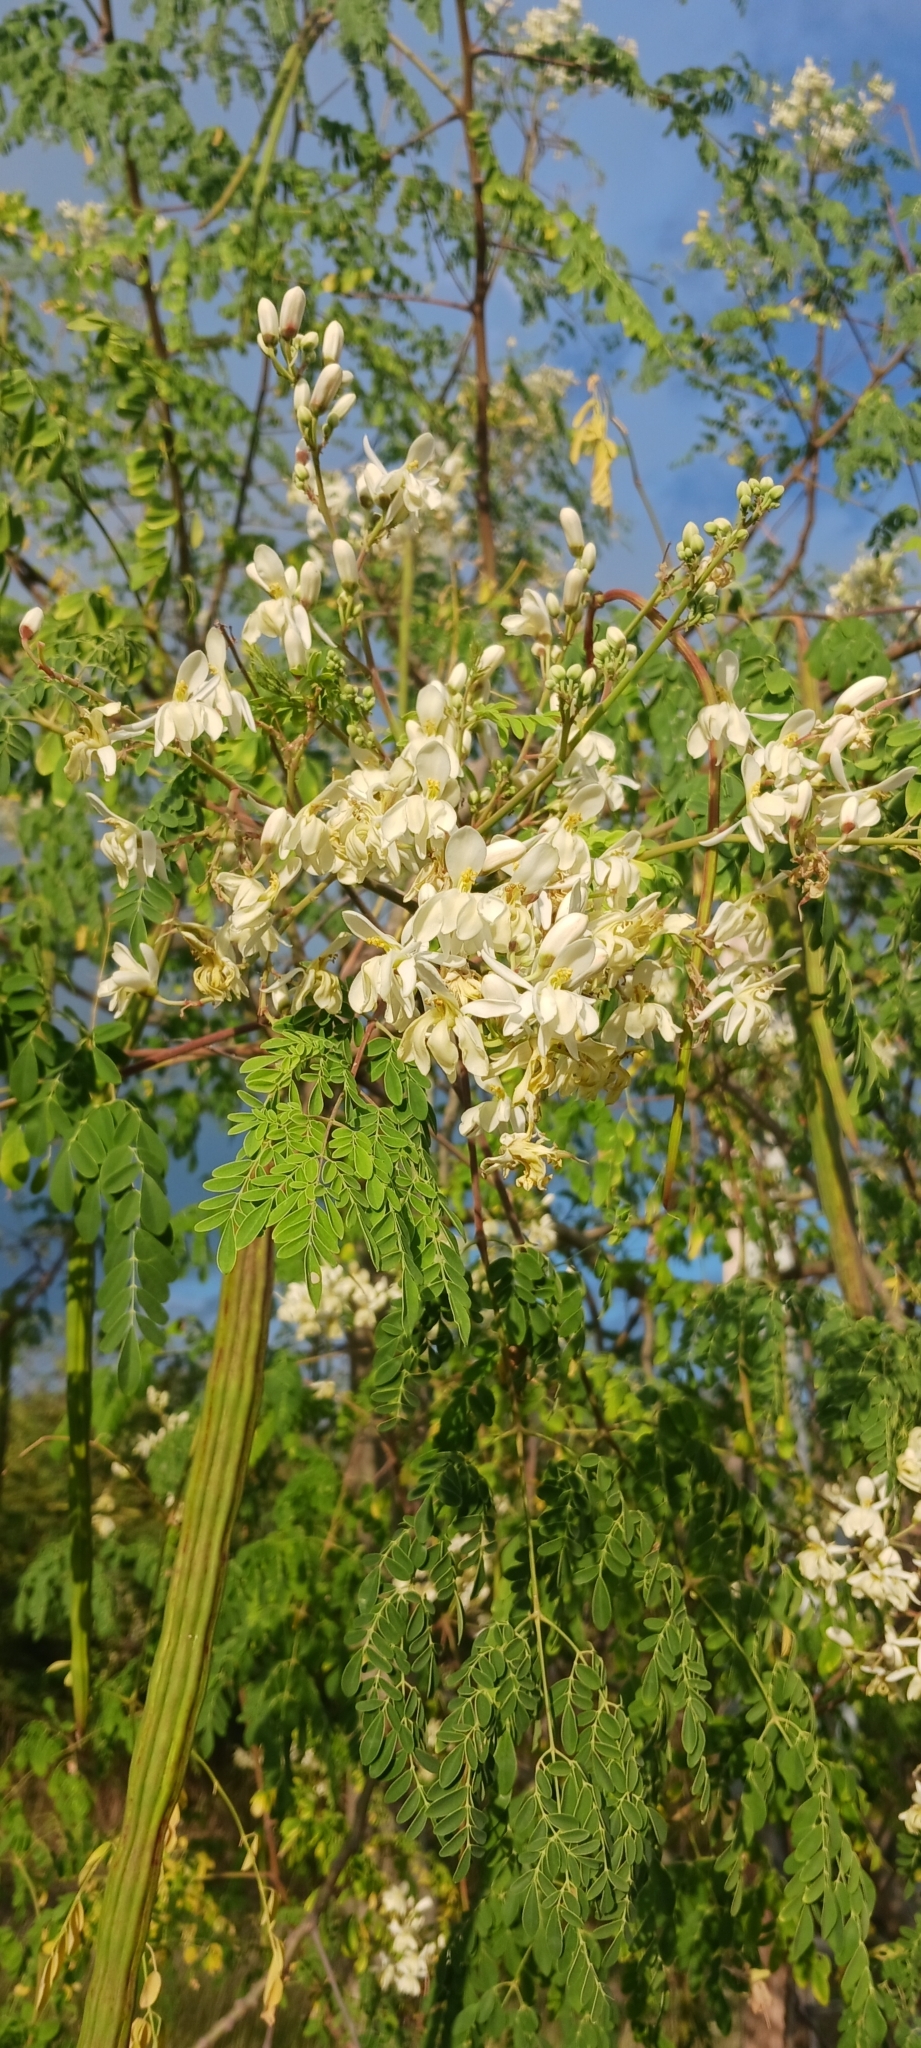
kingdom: Plantae
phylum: Tracheophyta
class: Magnoliopsida
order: Brassicales
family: Moringaceae
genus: Moringa
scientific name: Moringa oleifera
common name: Horseradish-tree
